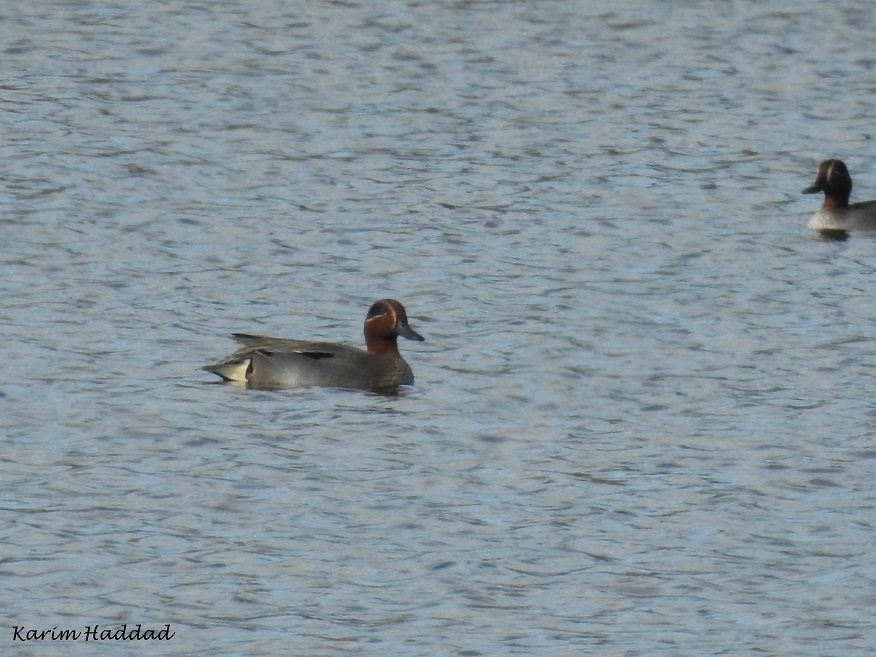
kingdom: Animalia
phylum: Chordata
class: Aves
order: Anseriformes
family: Anatidae
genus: Anas
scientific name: Anas crecca
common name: Eurasian teal
